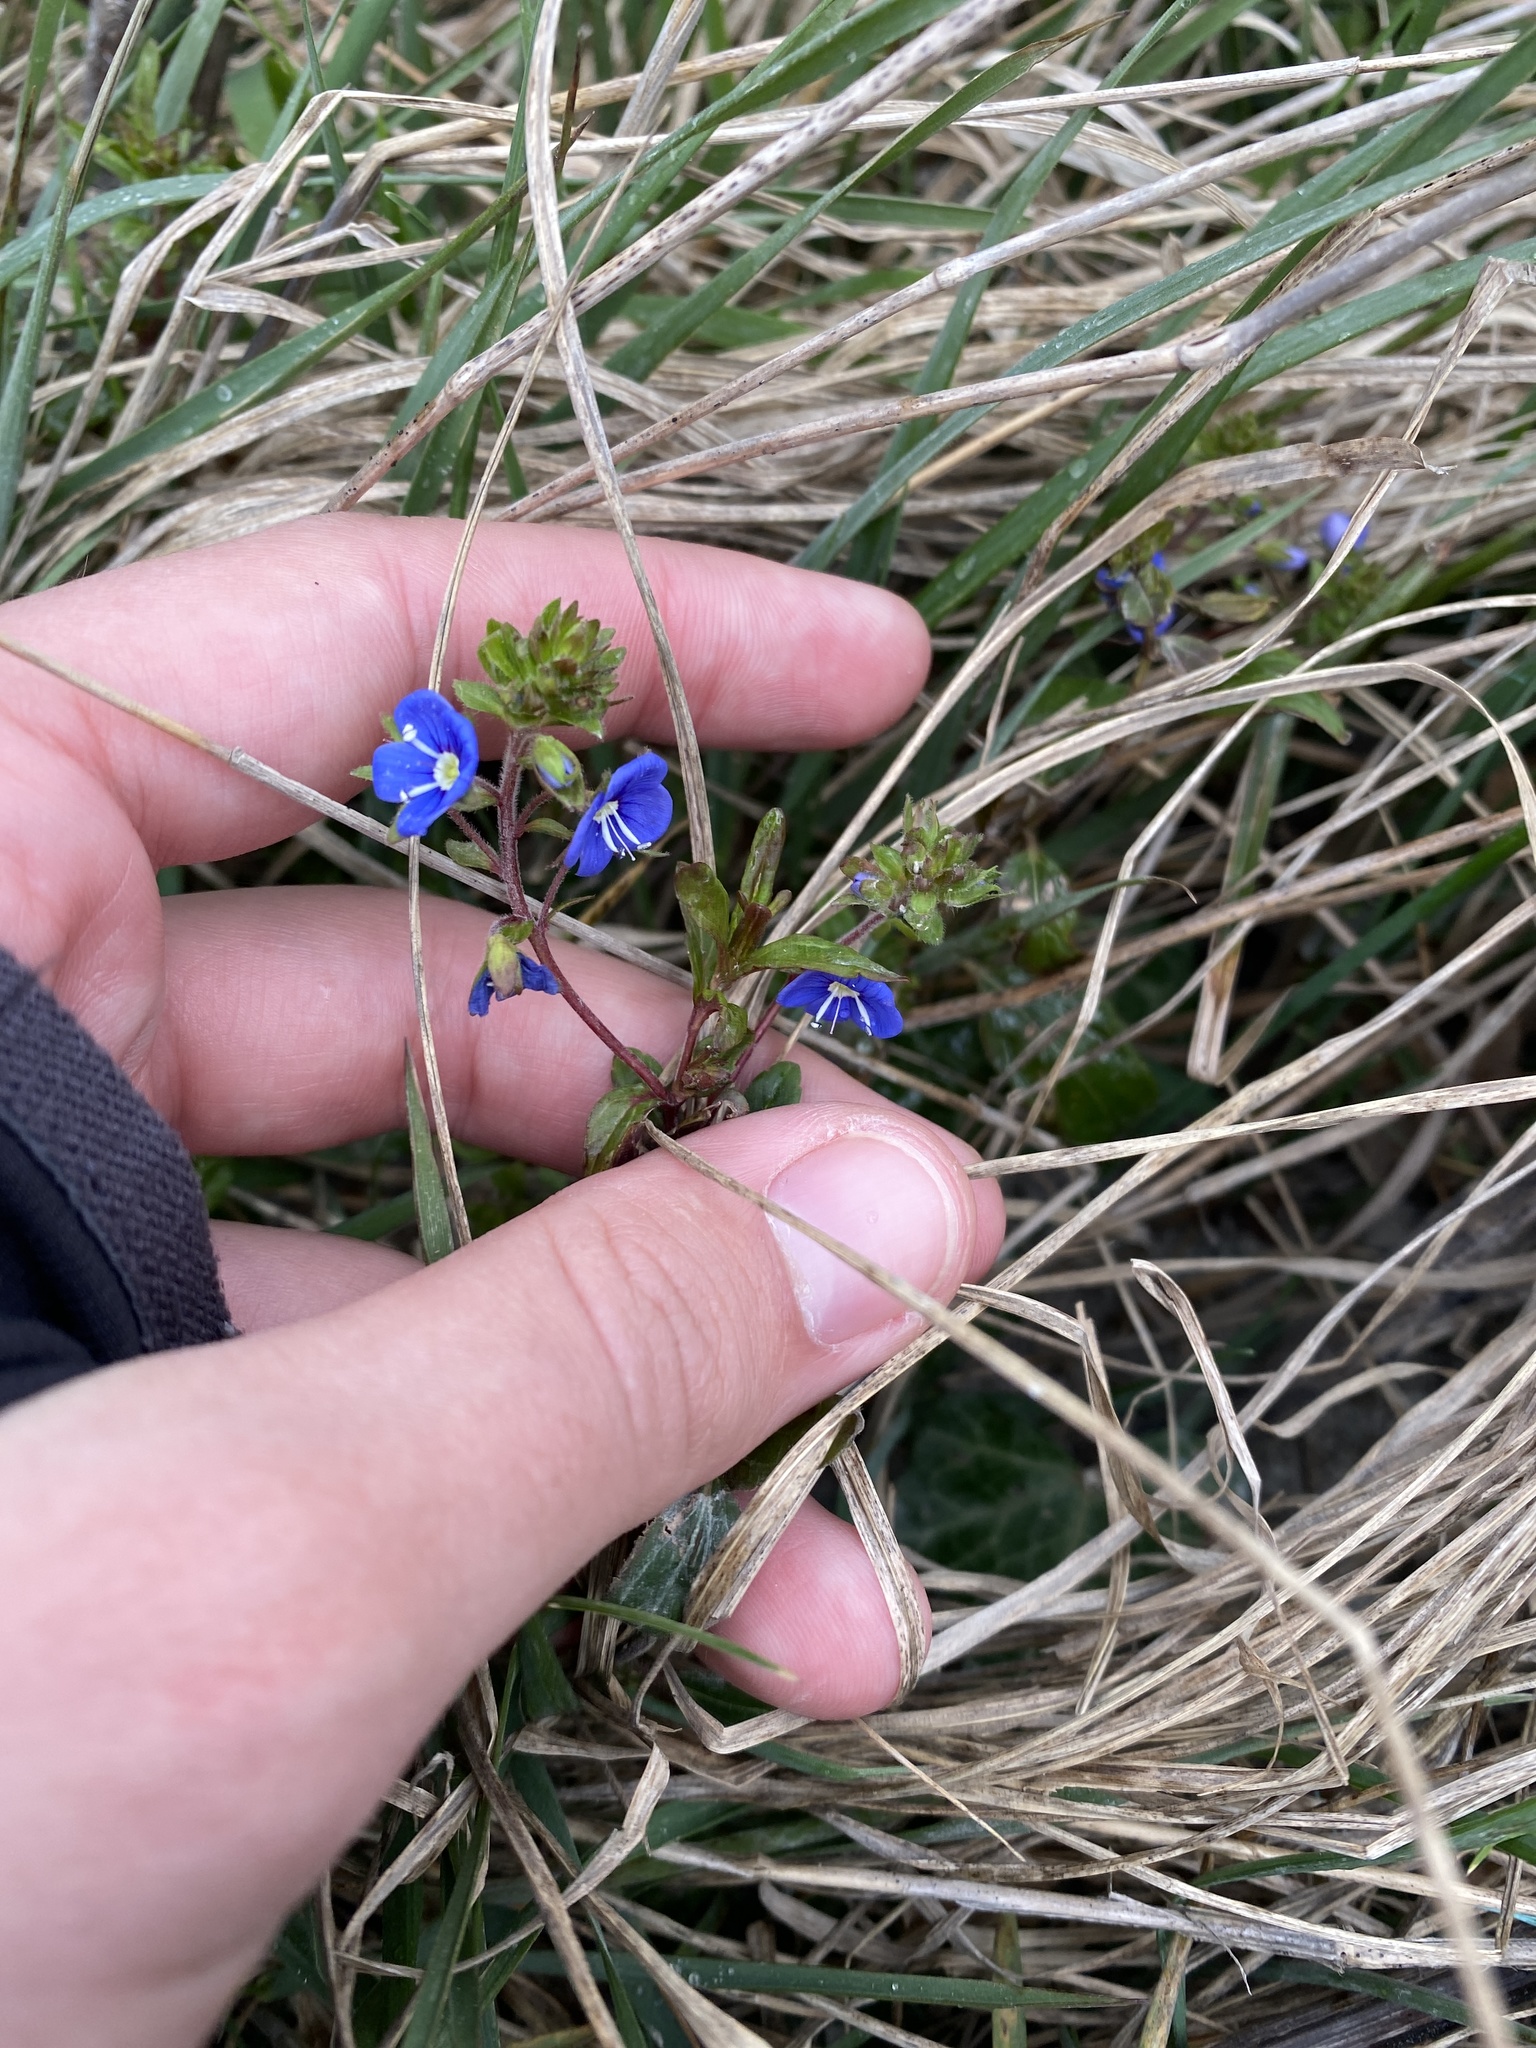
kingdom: Plantae
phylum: Tracheophyta
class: Magnoliopsida
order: Lamiales
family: Plantaginaceae
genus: Veronica
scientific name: Veronica
